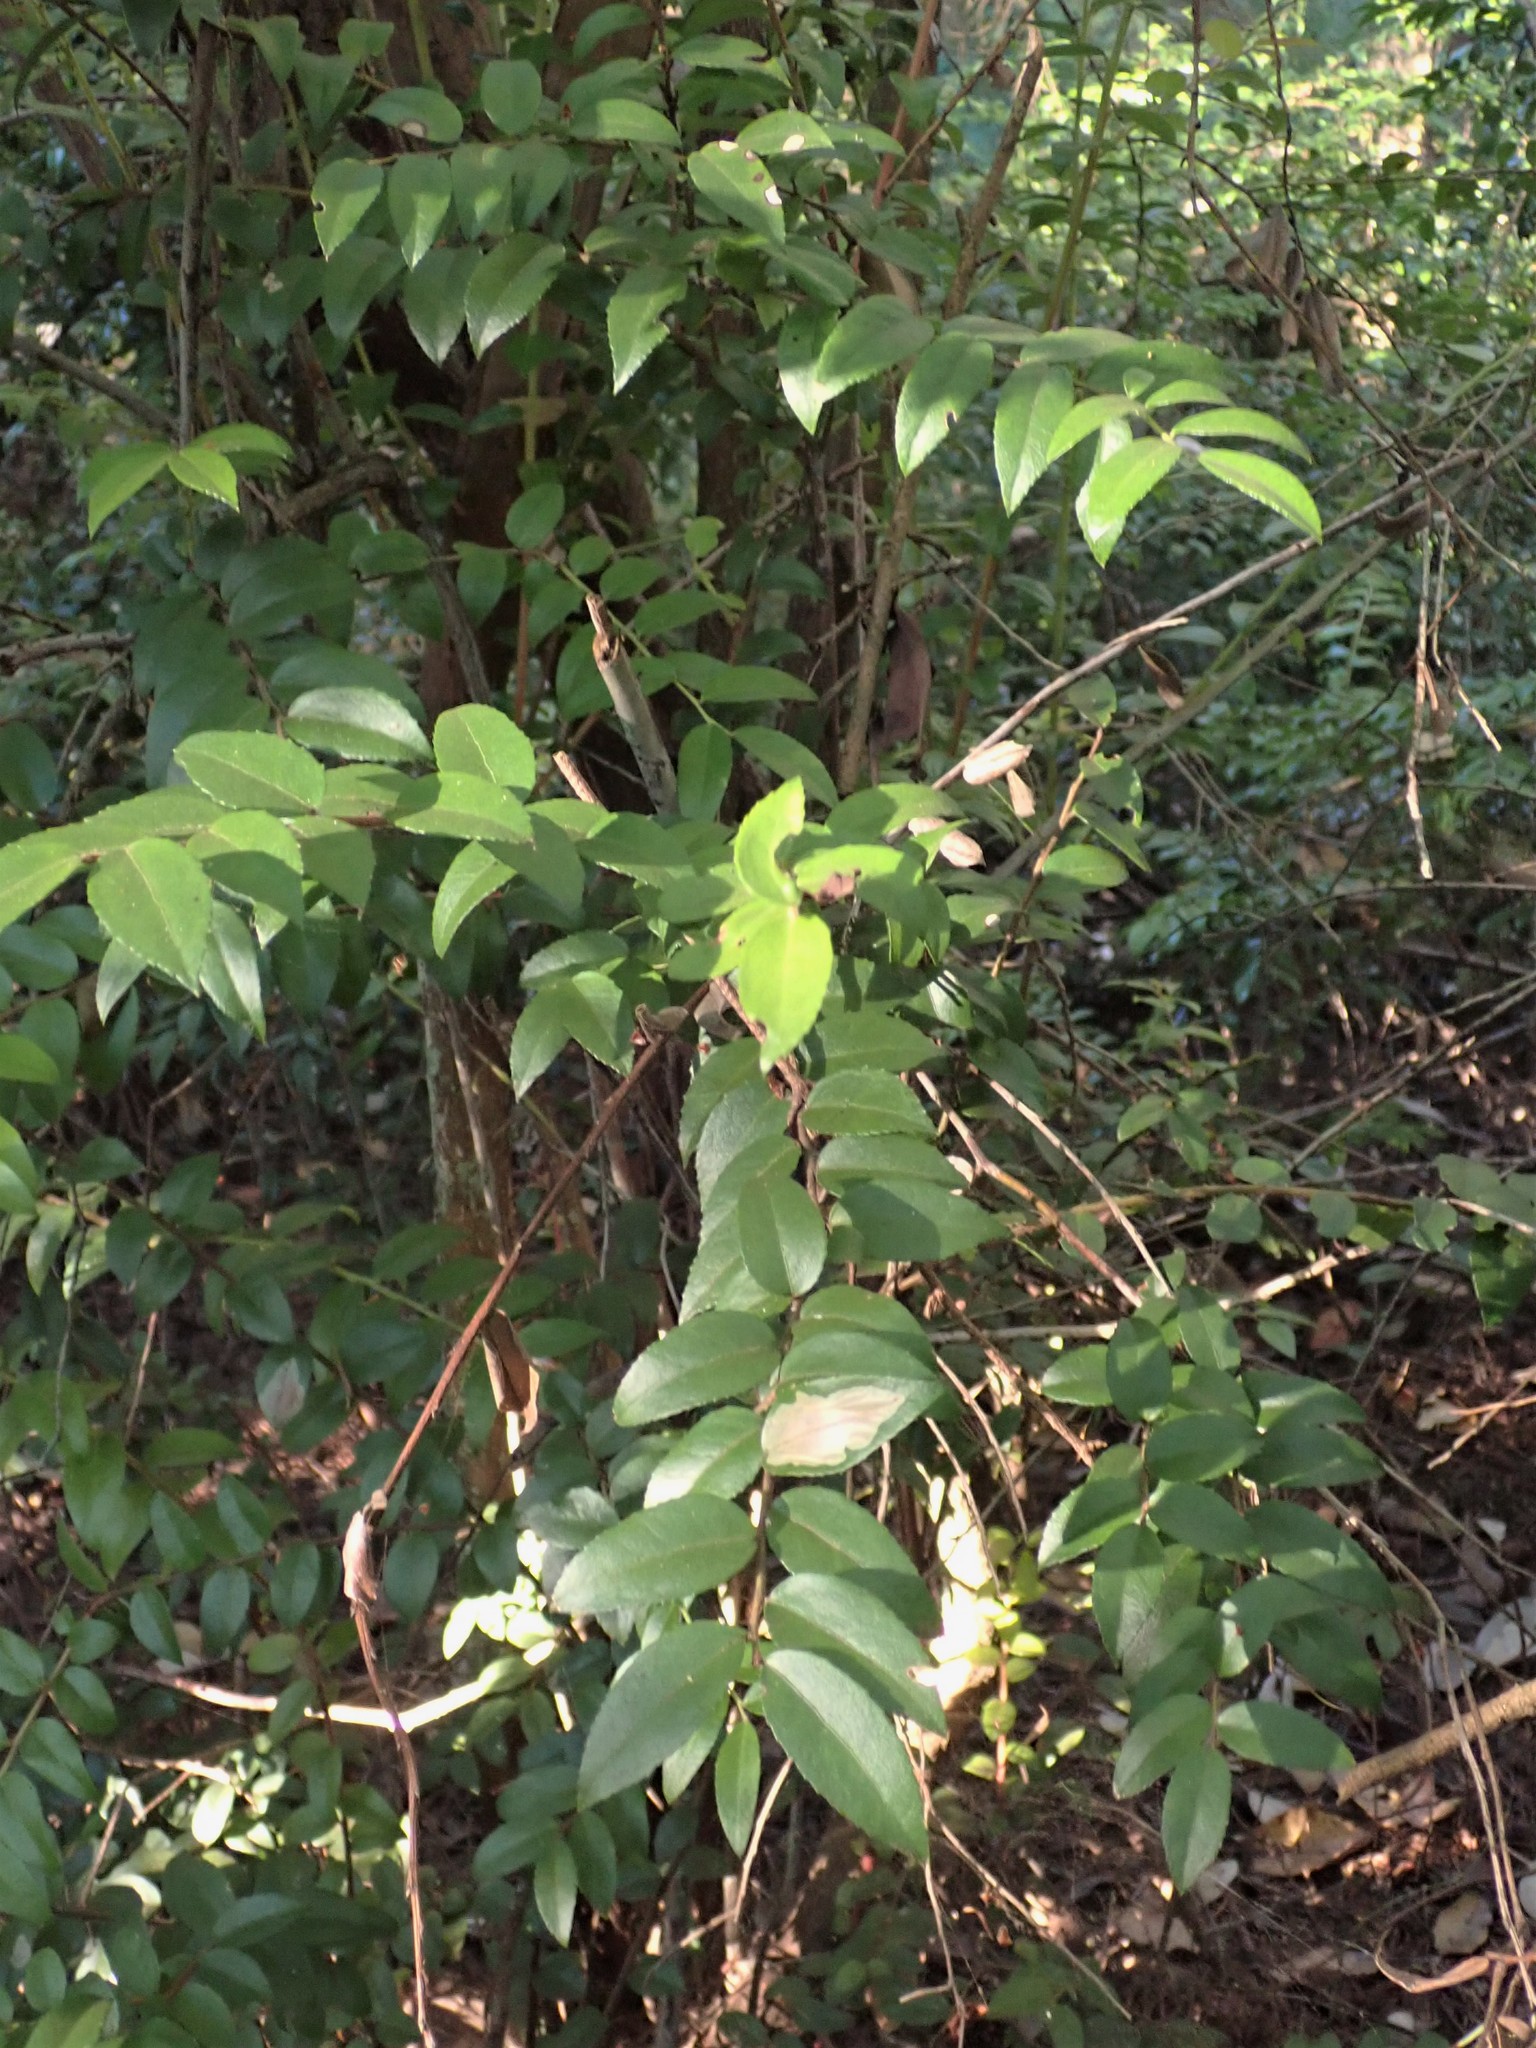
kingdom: Animalia
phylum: Arthropoda
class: Insecta
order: Lepidoptera
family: Gracillariidae
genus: Cameraria
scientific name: Cameraria nemoris
